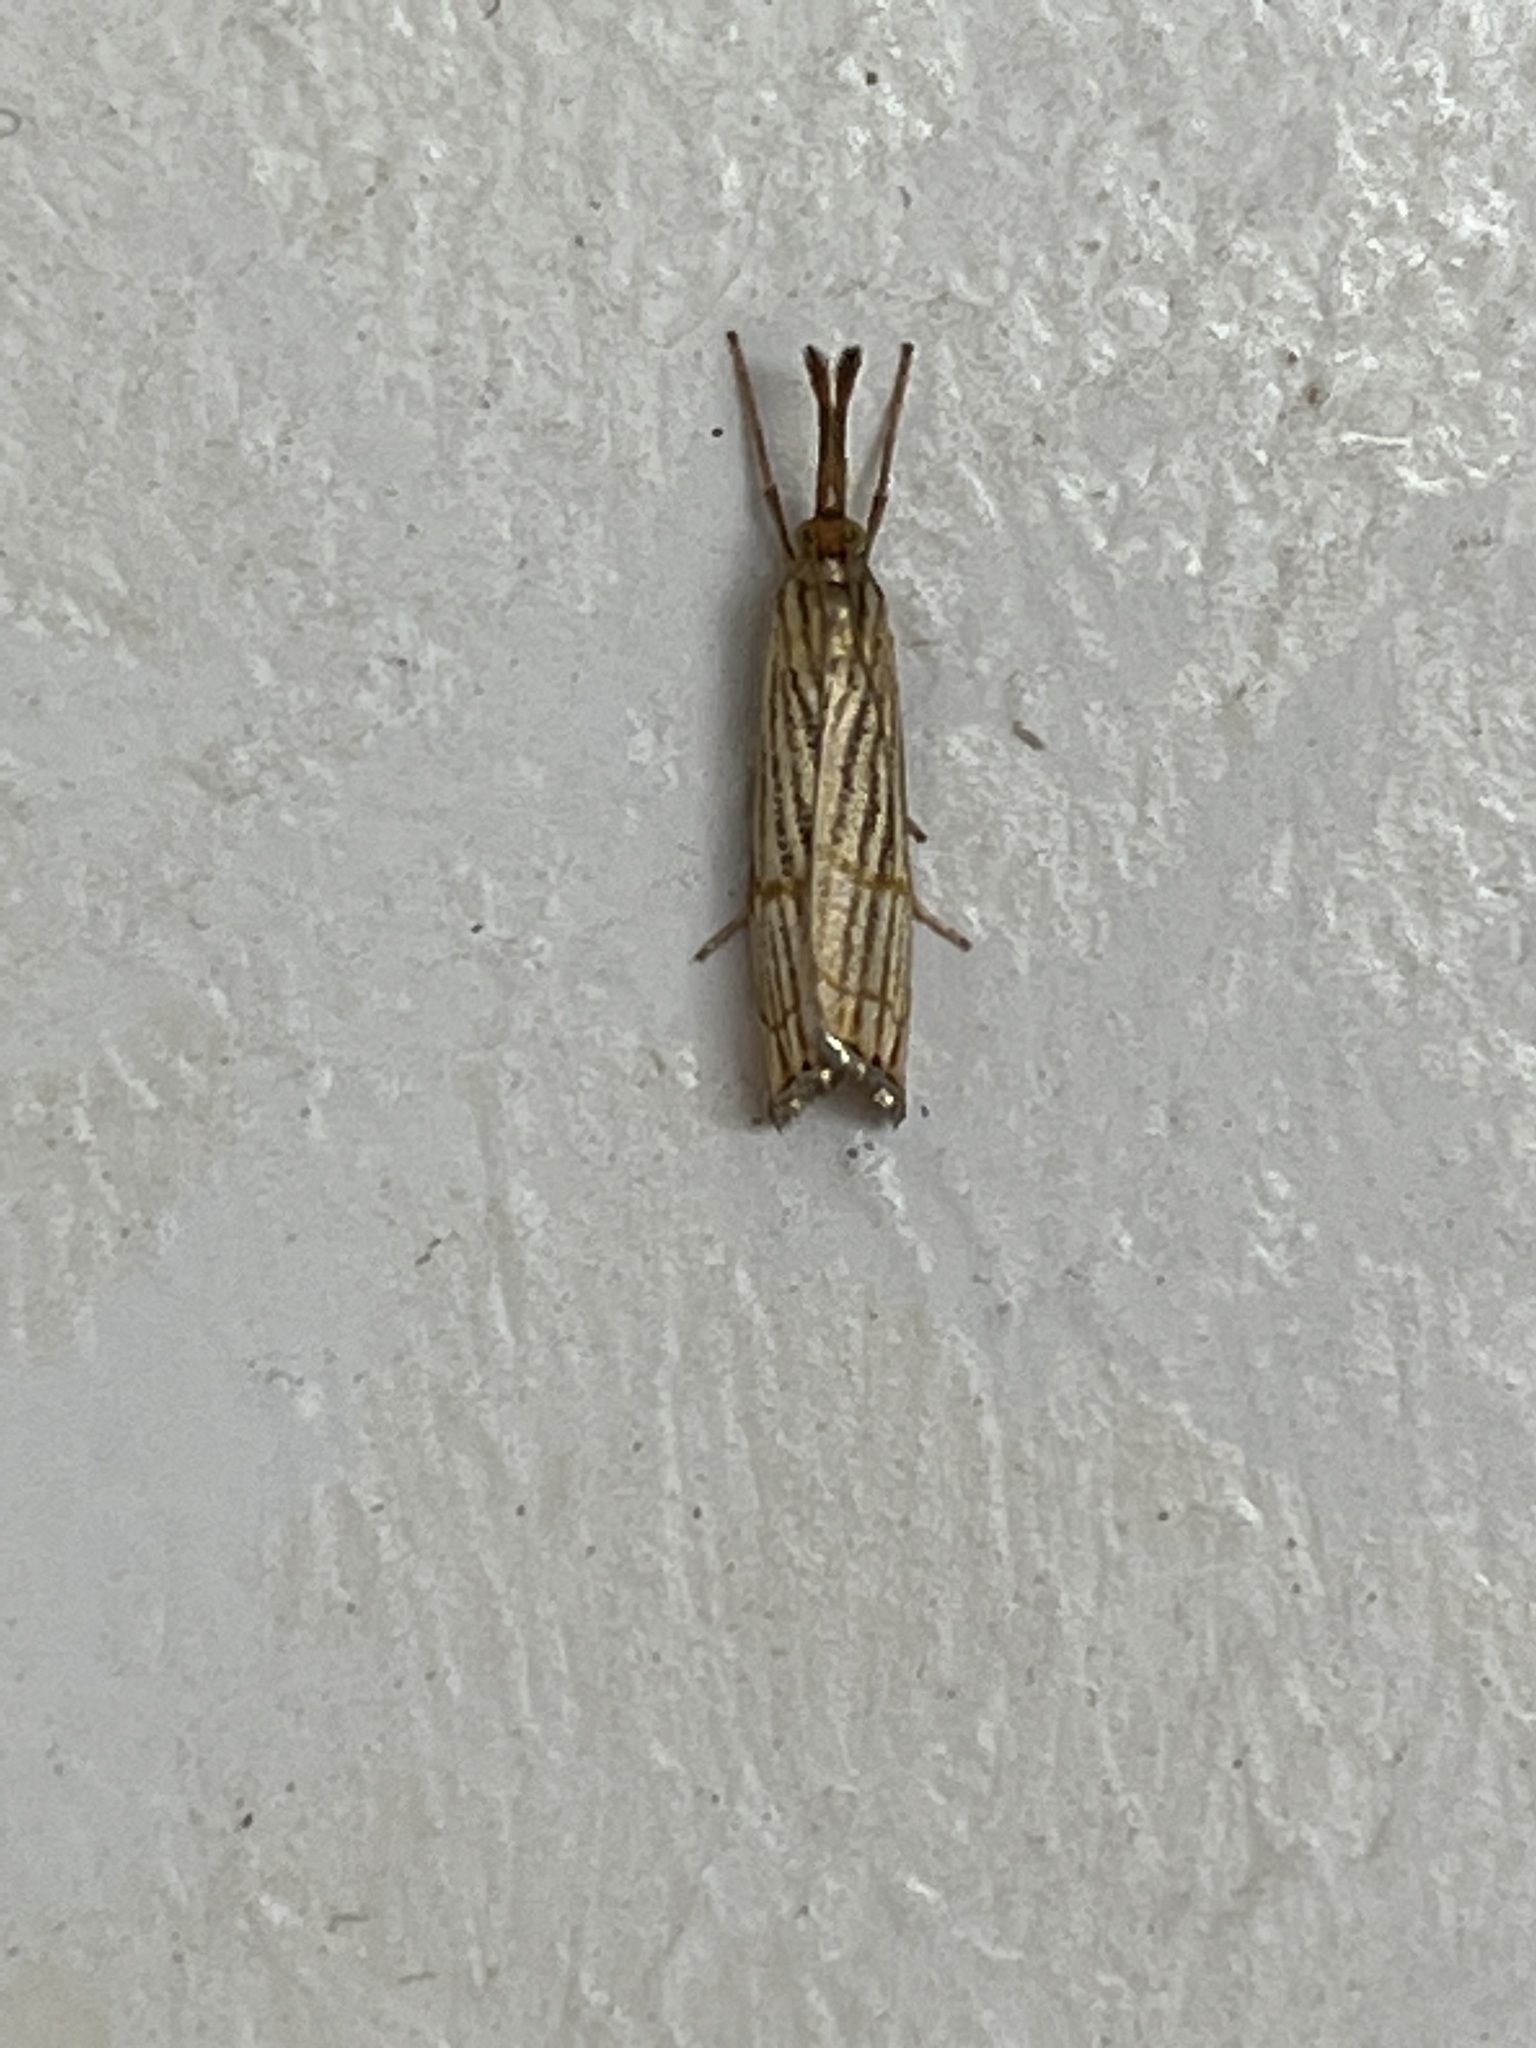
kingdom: Animalia
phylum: Arthropoda
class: Insecta
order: Lepidoptera
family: Crambidae
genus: Chrysocrambus
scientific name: Chrysocrambus linetella
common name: Orange-bar grass-veneer
